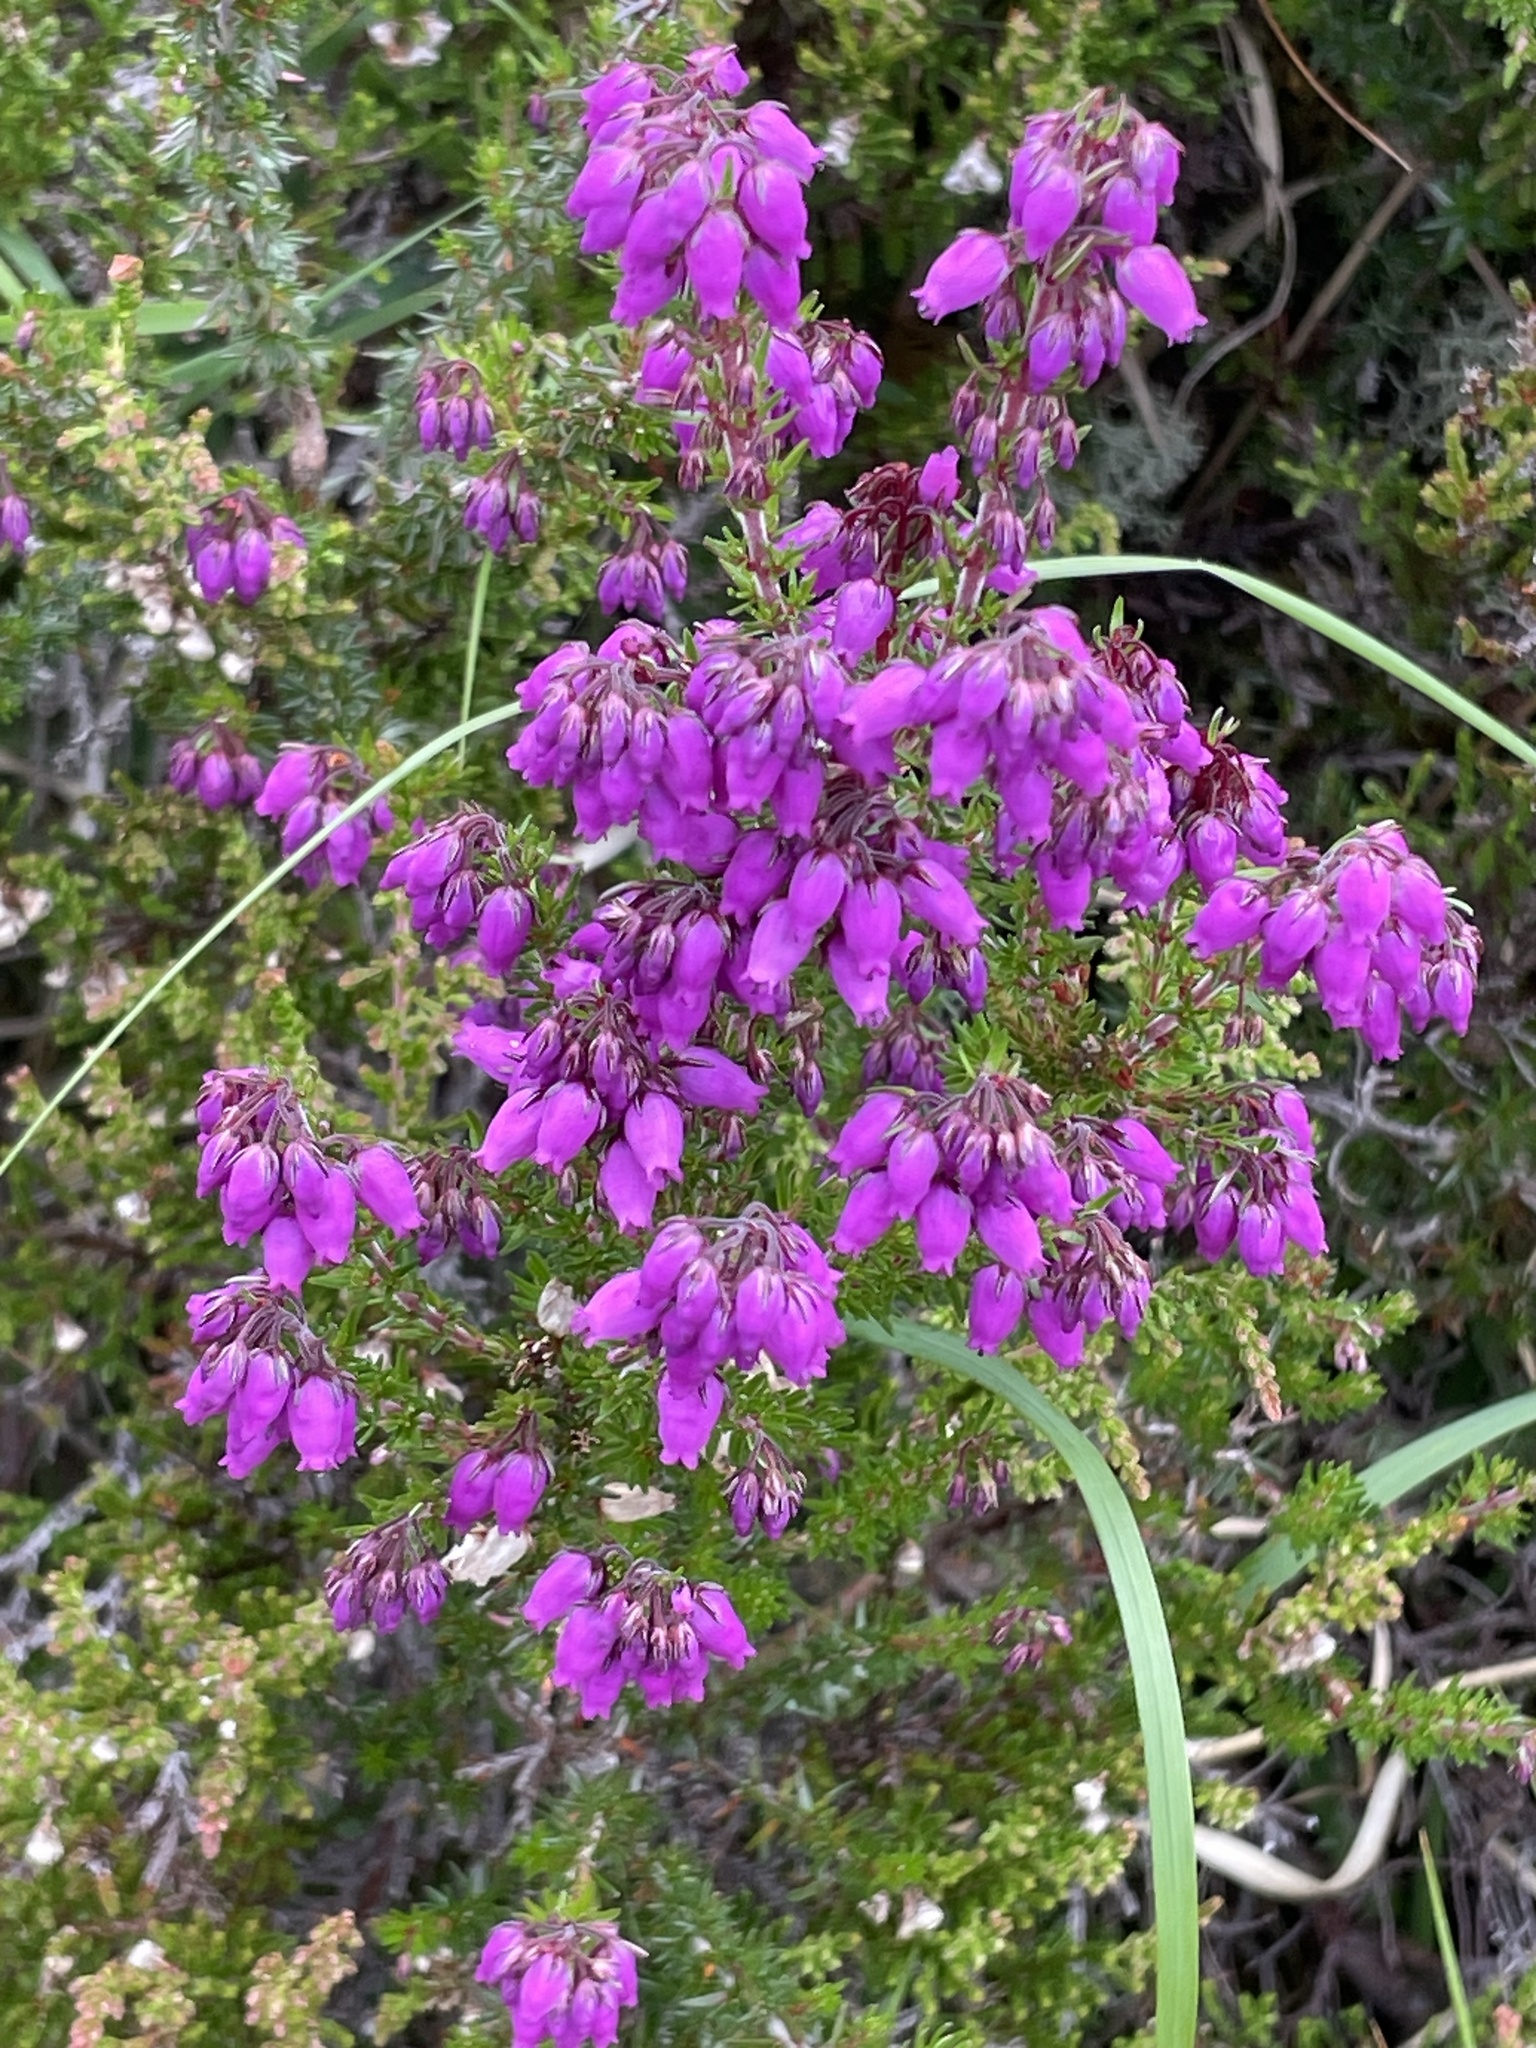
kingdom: Plantae
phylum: Tracheophyta
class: Magnoliopsida
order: Ericales
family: Ericaceae
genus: Erica
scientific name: Erica cinerea
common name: Bell heather
